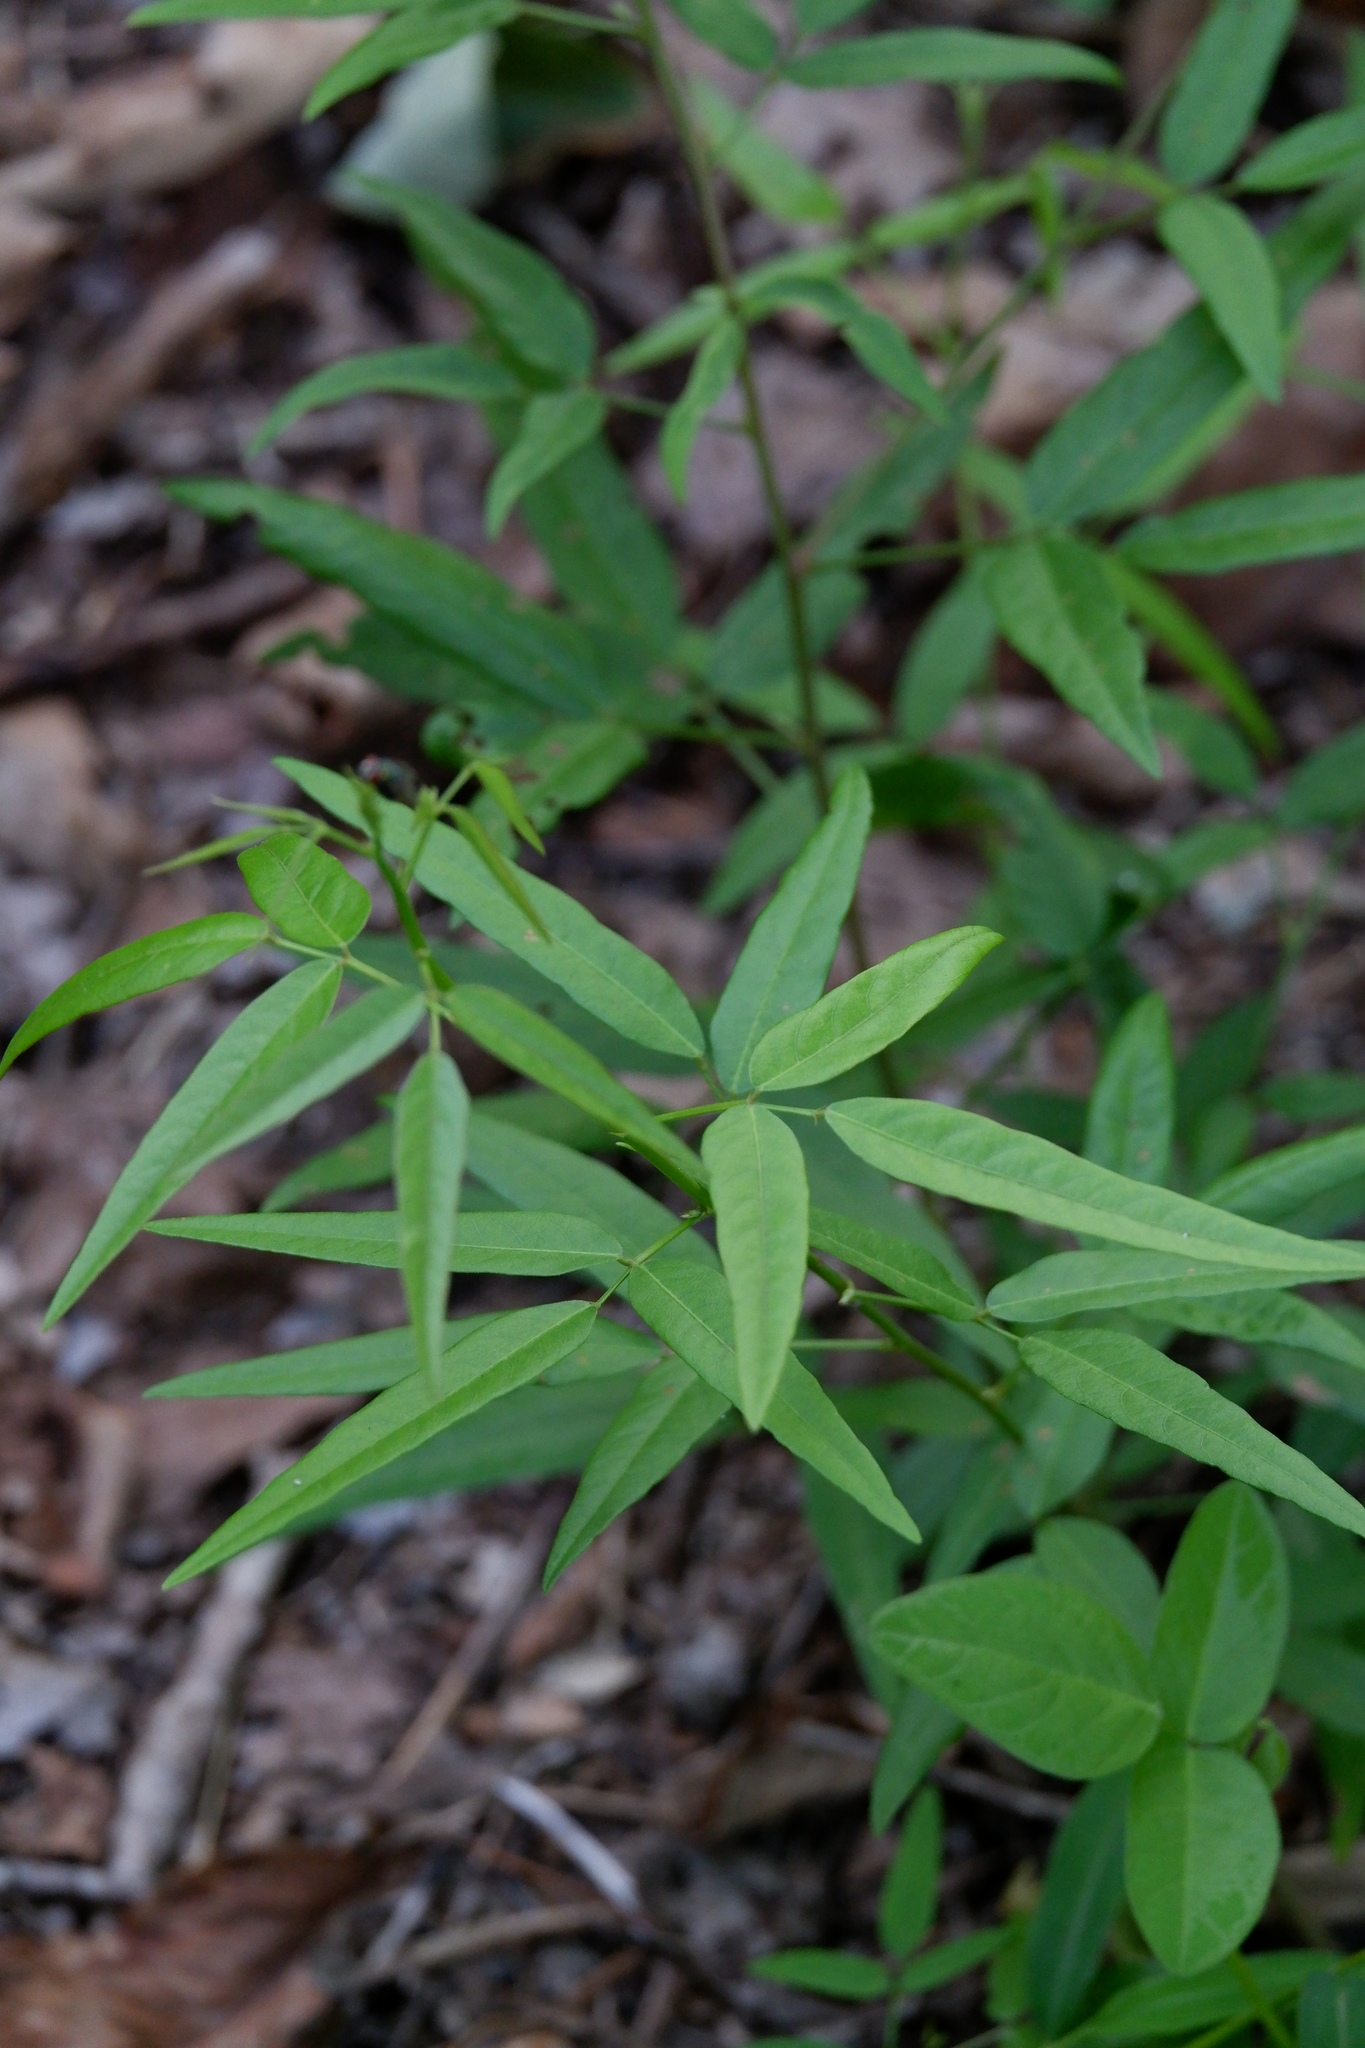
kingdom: Plantae
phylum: Tracheophyta
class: Magnoliopsida
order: Fabales
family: Fabaceae
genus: Desmodium
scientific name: Desmodium paniculatum
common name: Panicled tick-clover
